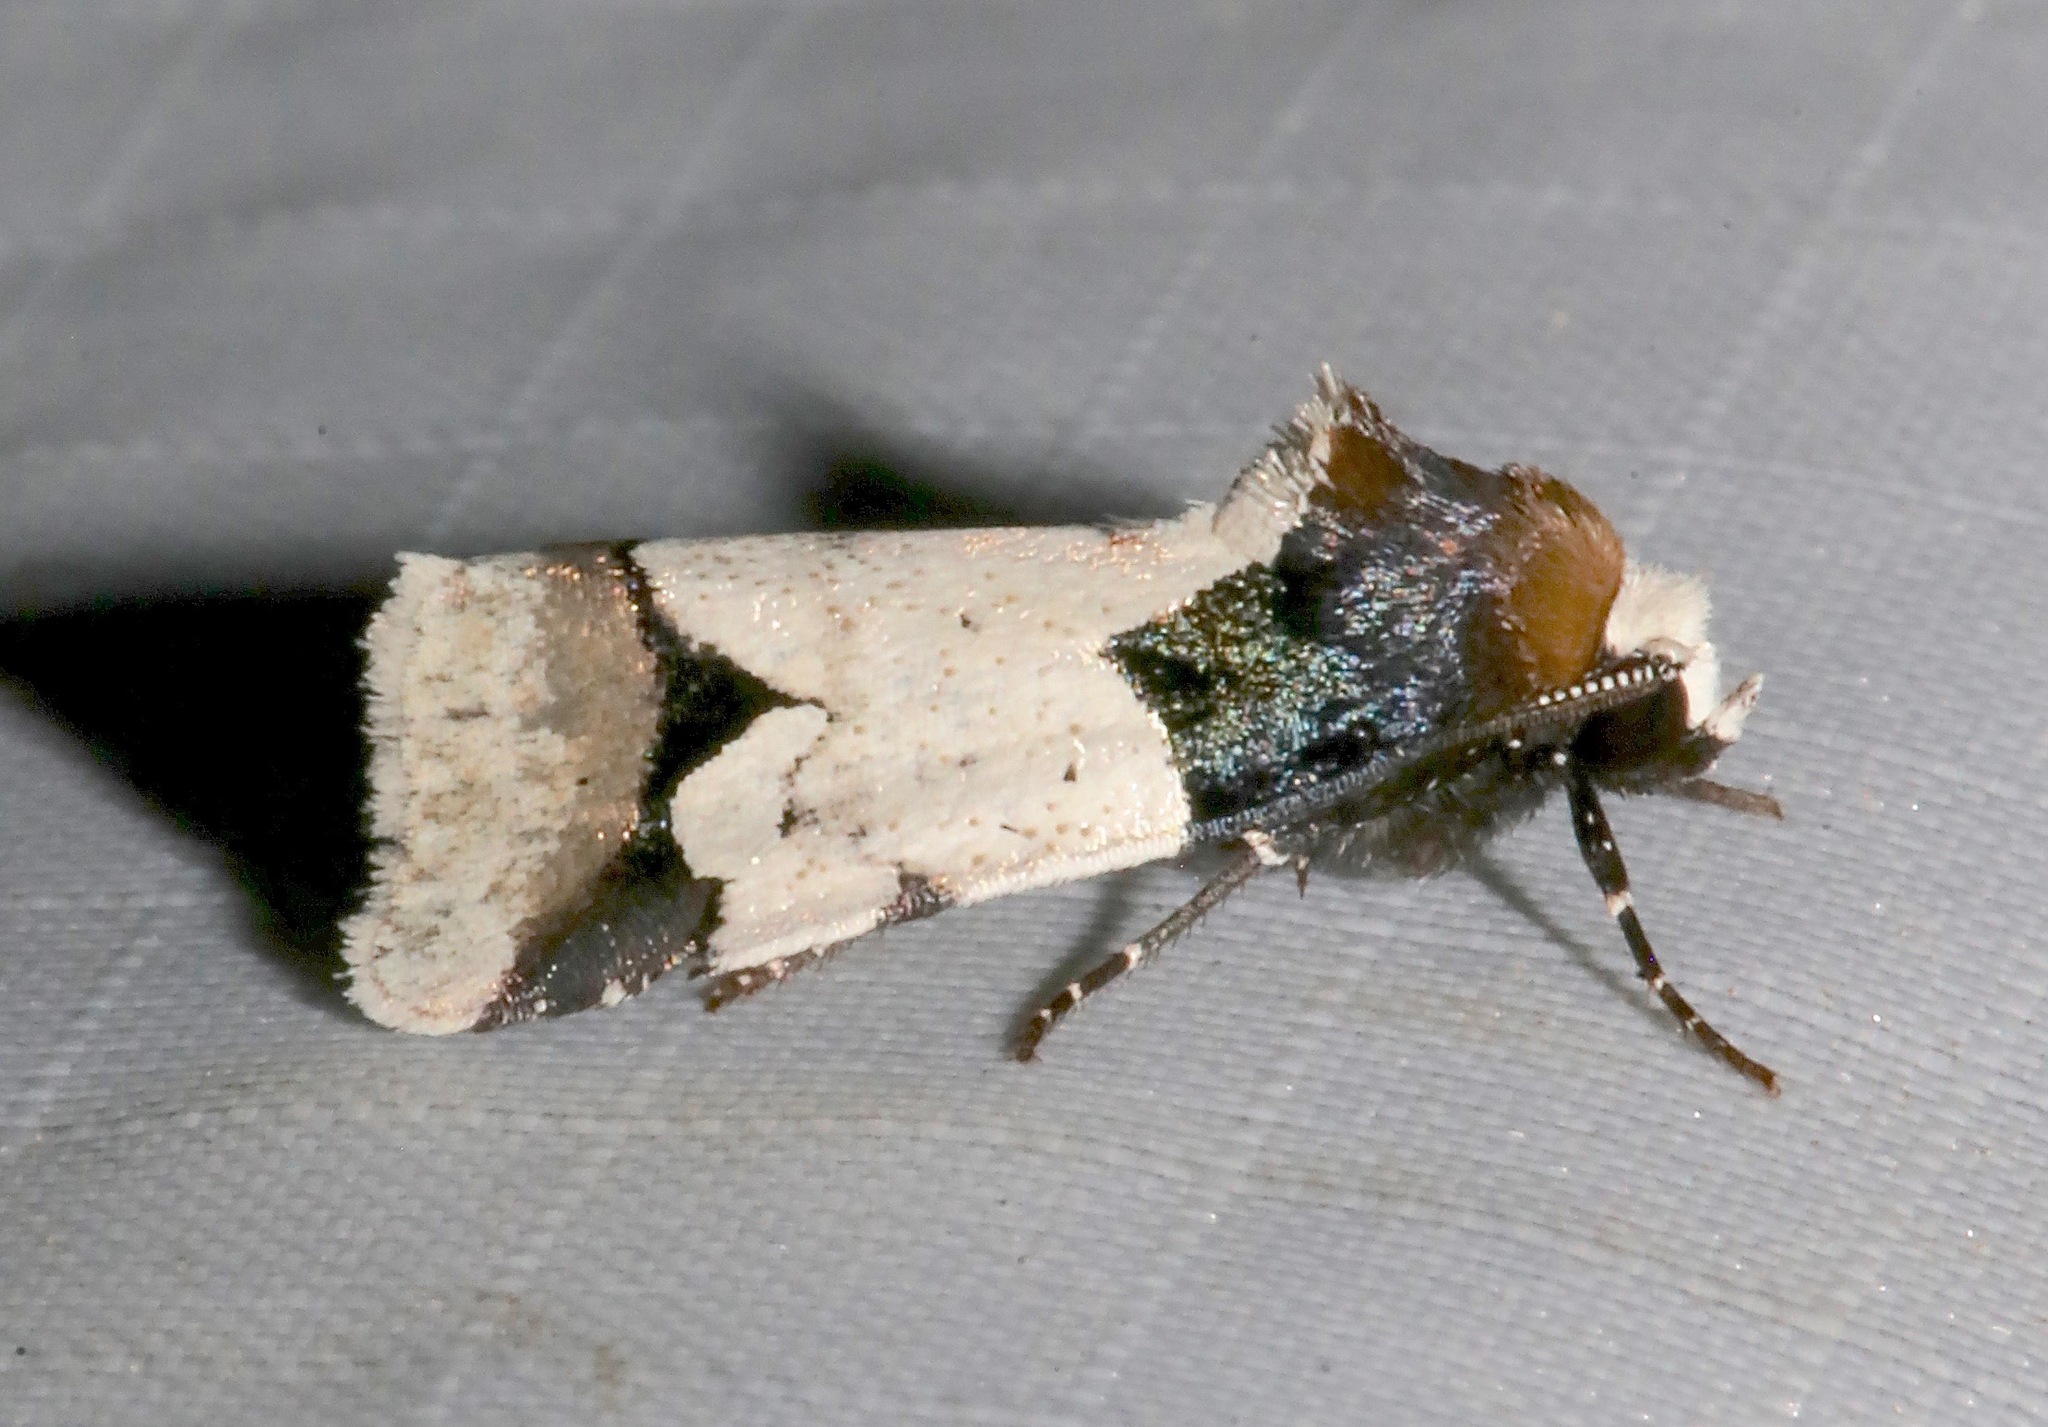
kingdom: Animalia
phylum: Arthropoda
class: Insecta
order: Lepidoptera
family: Noctuidae
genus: Bryolymnia
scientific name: Bryolymnia roma
